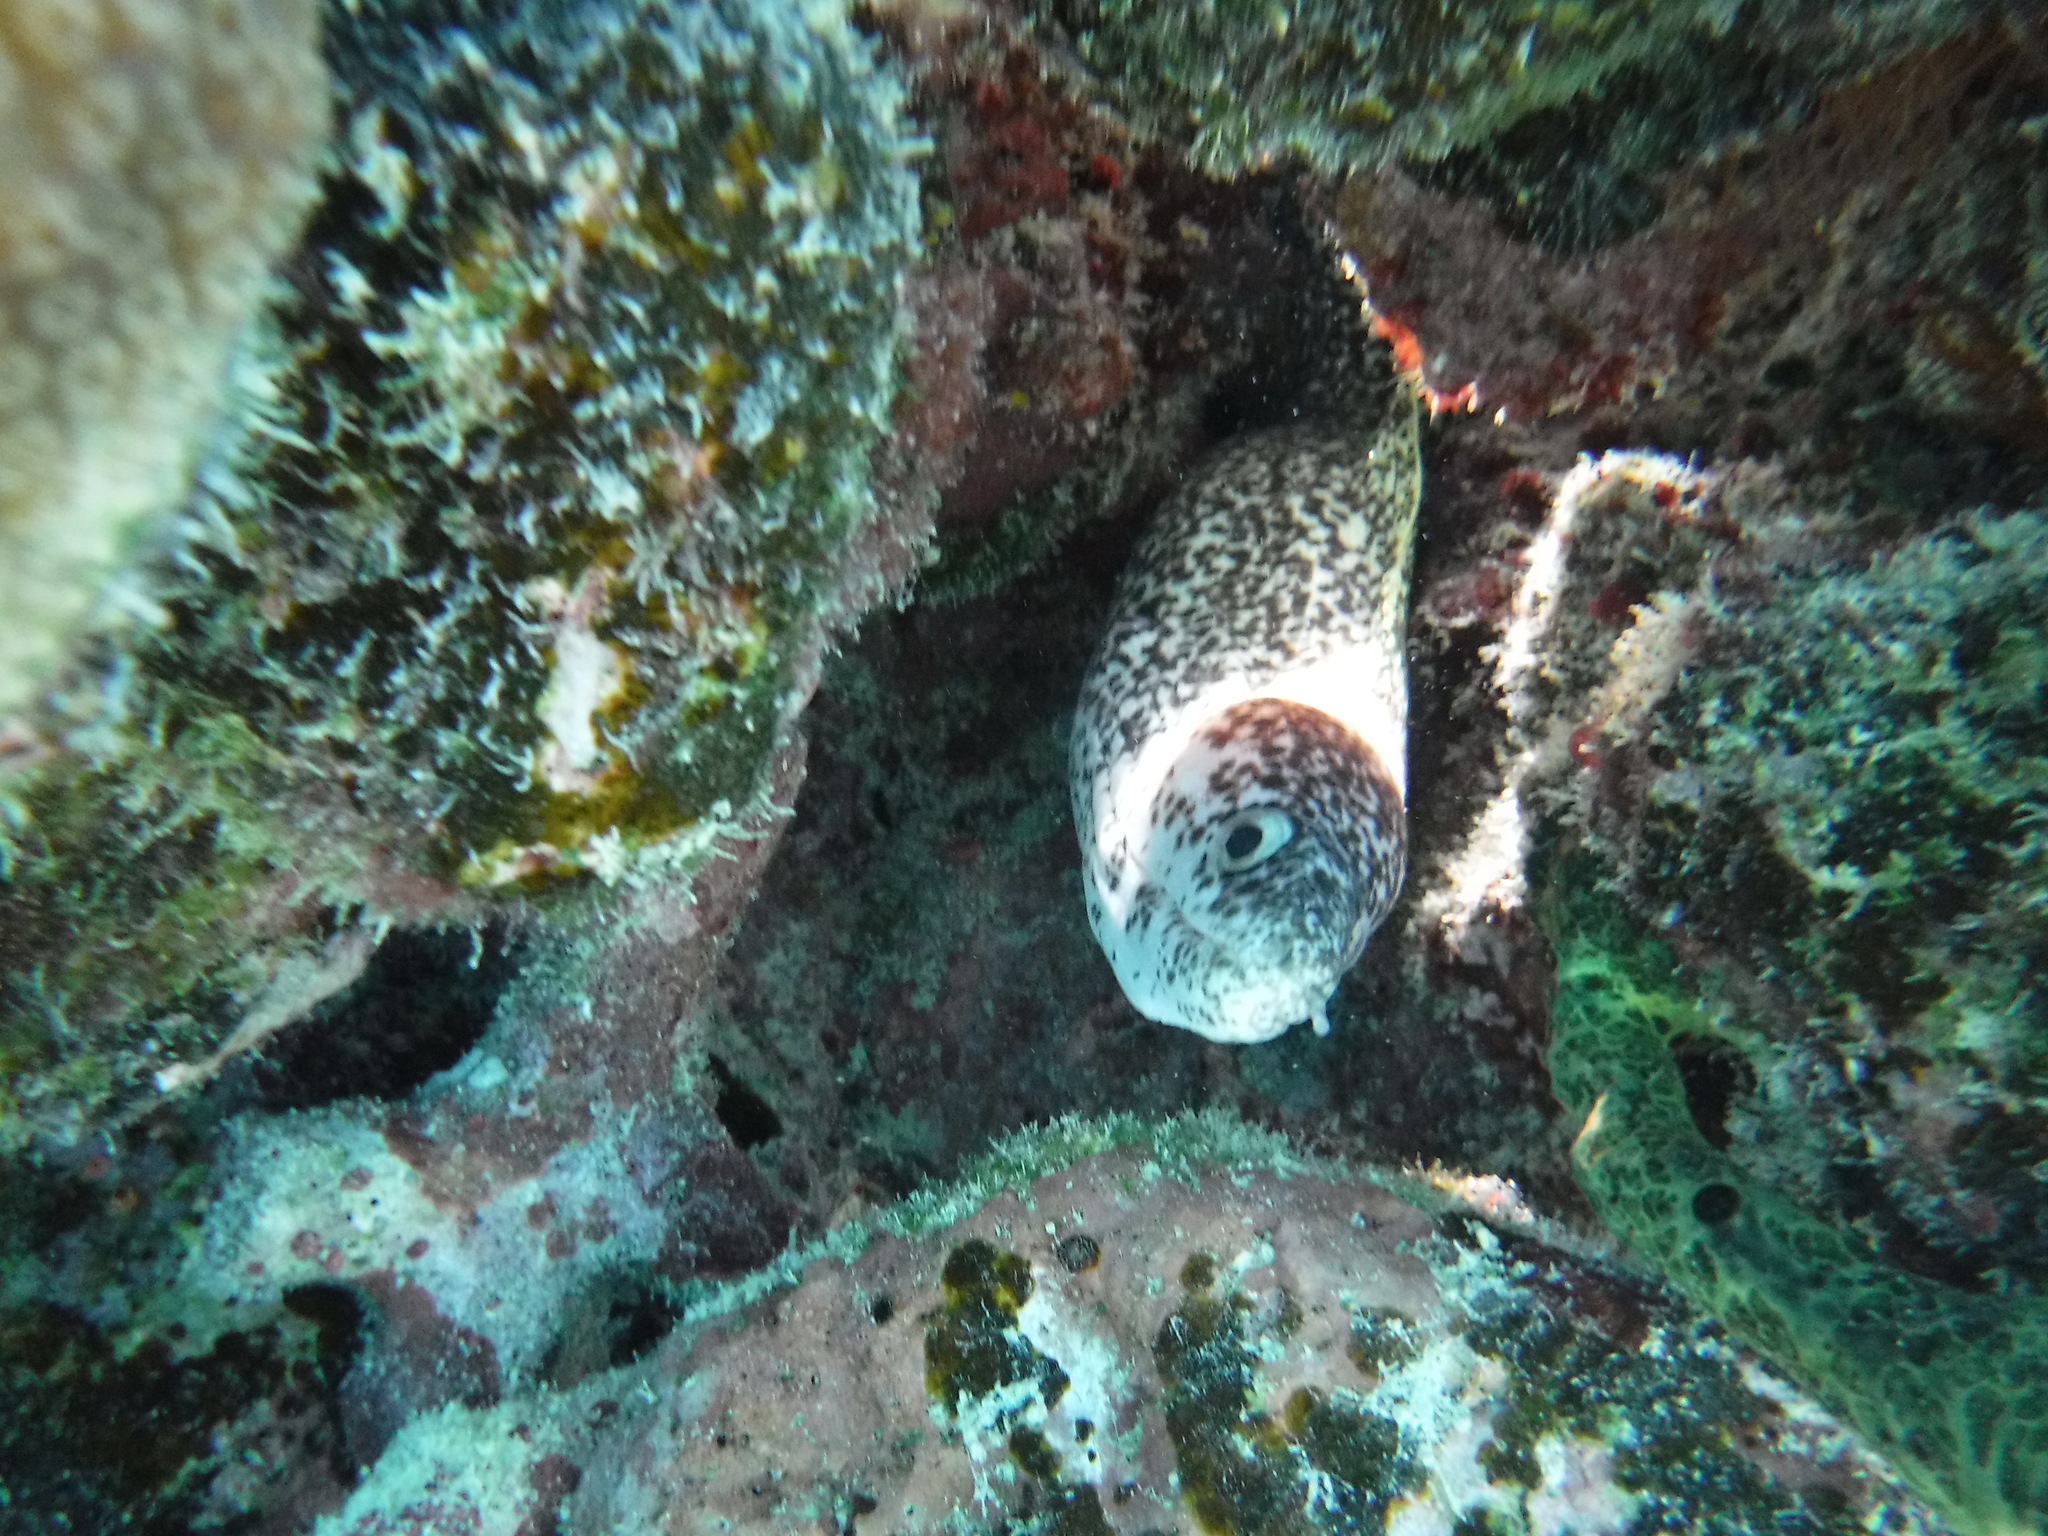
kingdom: Animalia
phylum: Chordata
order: Anguilliformes
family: Muraenidae
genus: Gymnothorax
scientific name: Gymnothorax moringa
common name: Spotted moray
